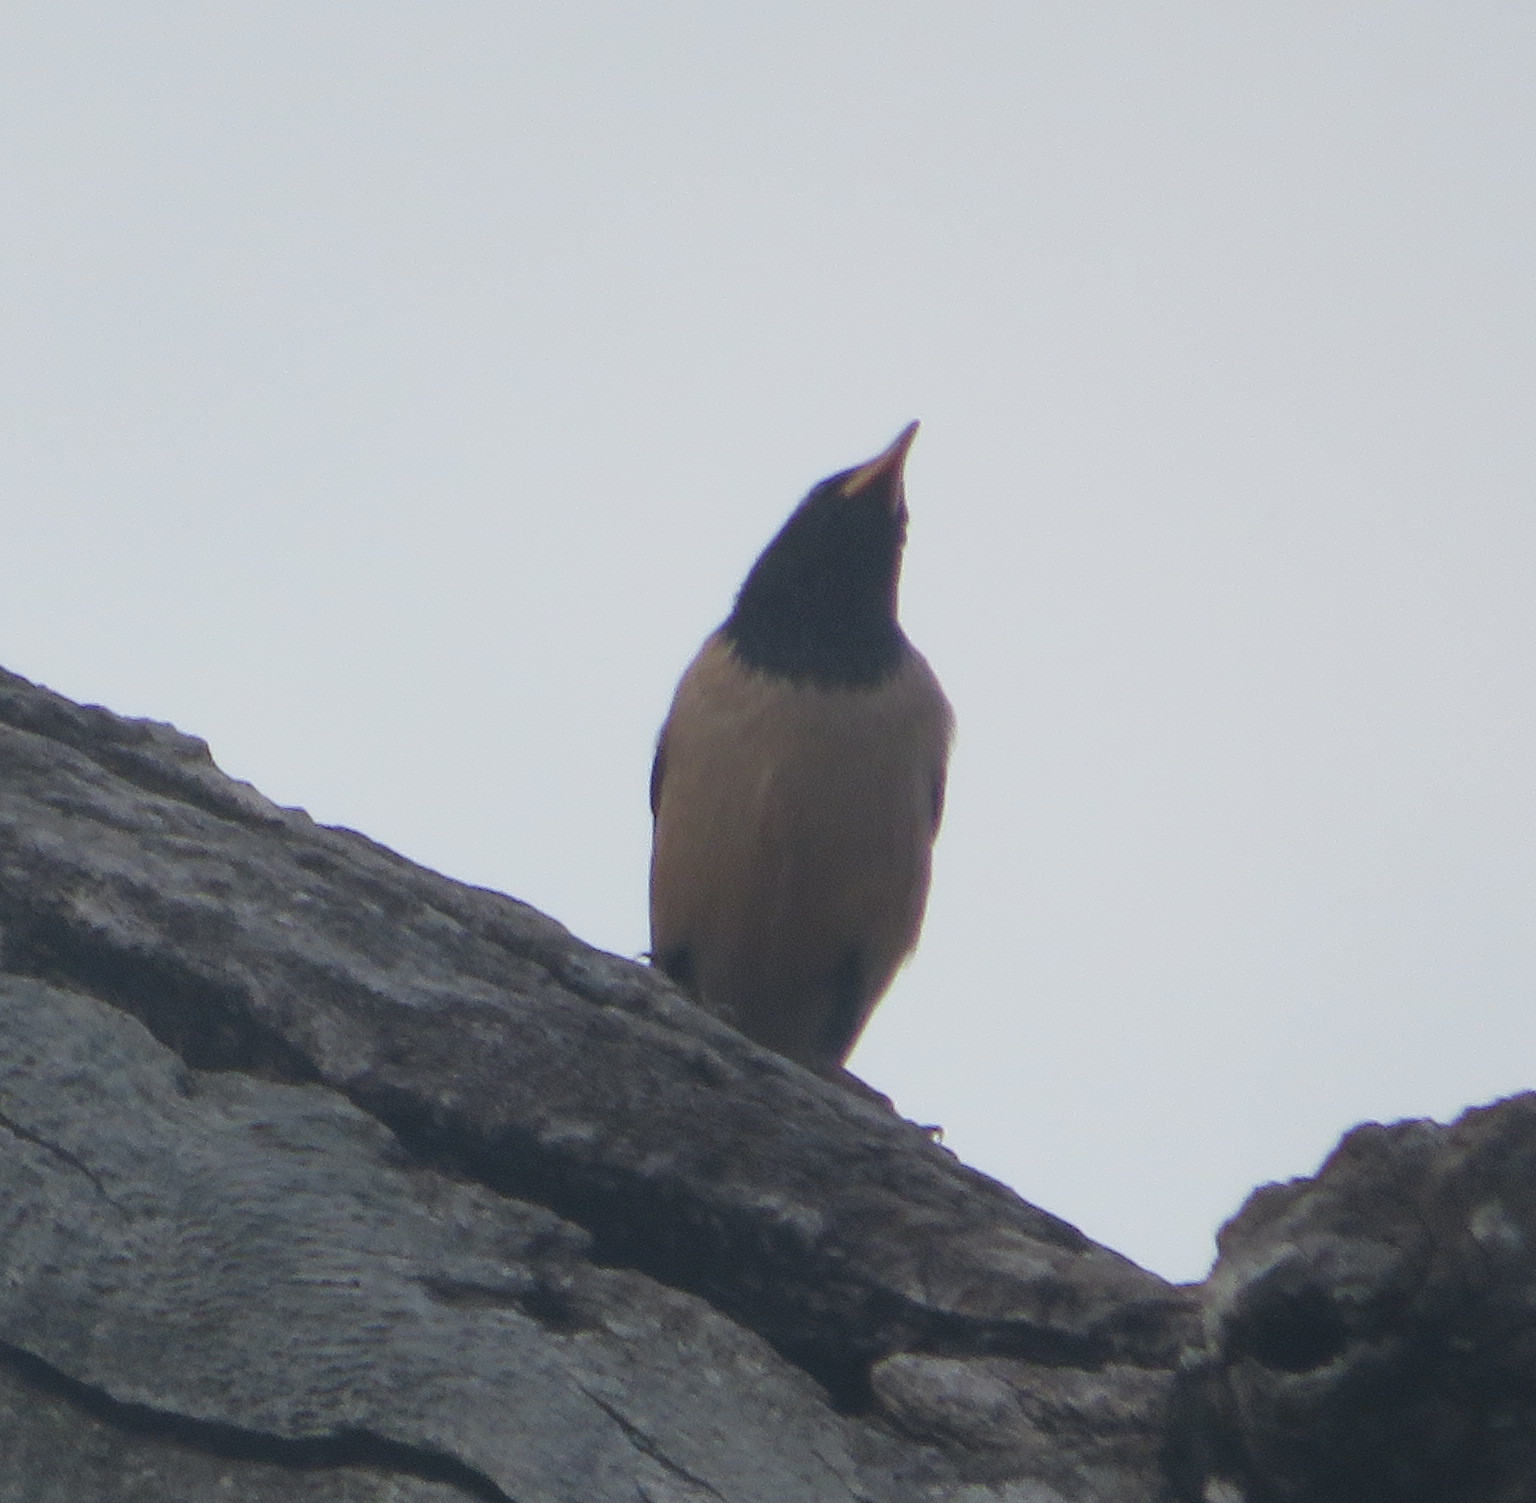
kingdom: Animalia
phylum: Chordata
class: Aves
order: Passeriformes
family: Sturnidae
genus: Pastor
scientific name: Pastor roseus
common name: Rosy starling
